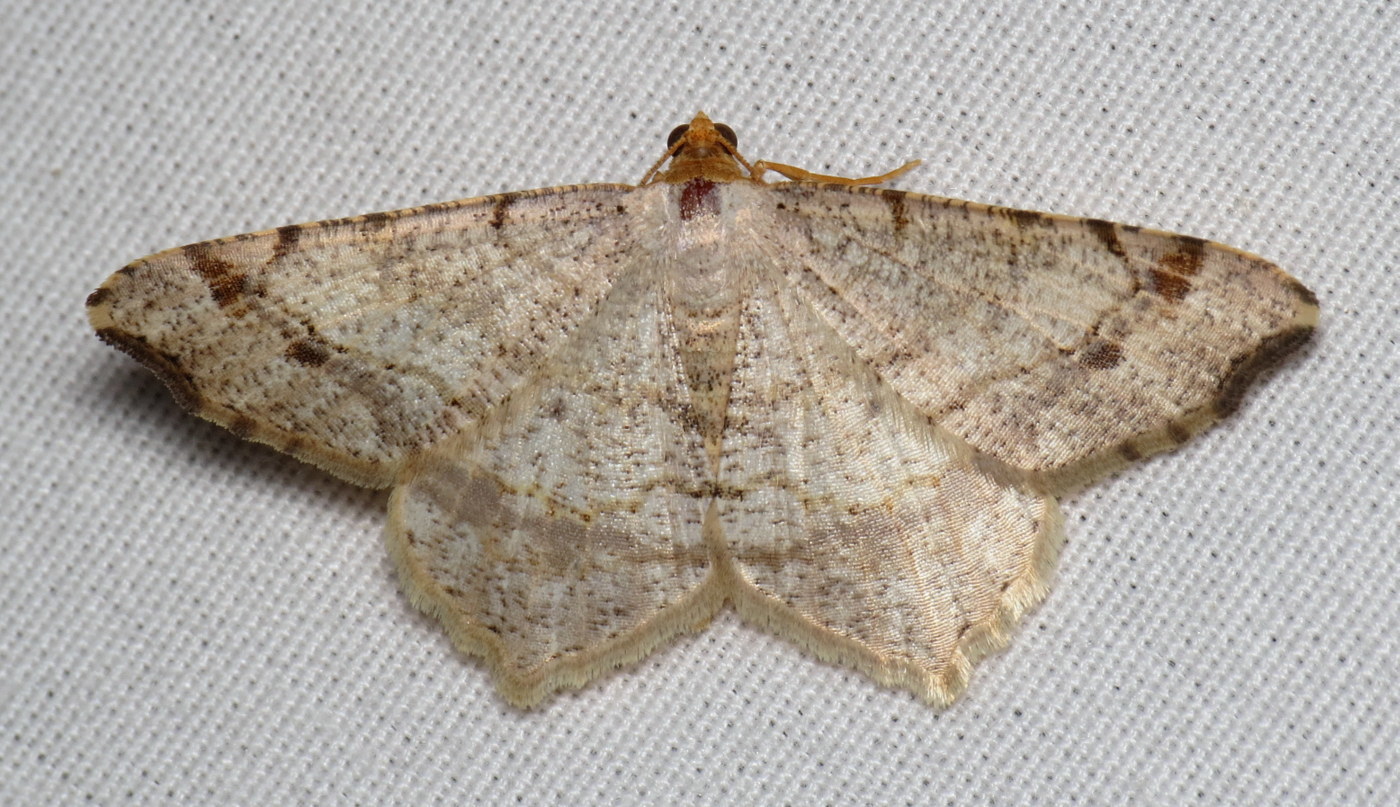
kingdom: Animalia
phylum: Arthropoda
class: Insecta
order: Lepidoptera
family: Geometridae
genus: Macaria
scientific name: Macaria bisignata
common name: Red-headed inchworm
